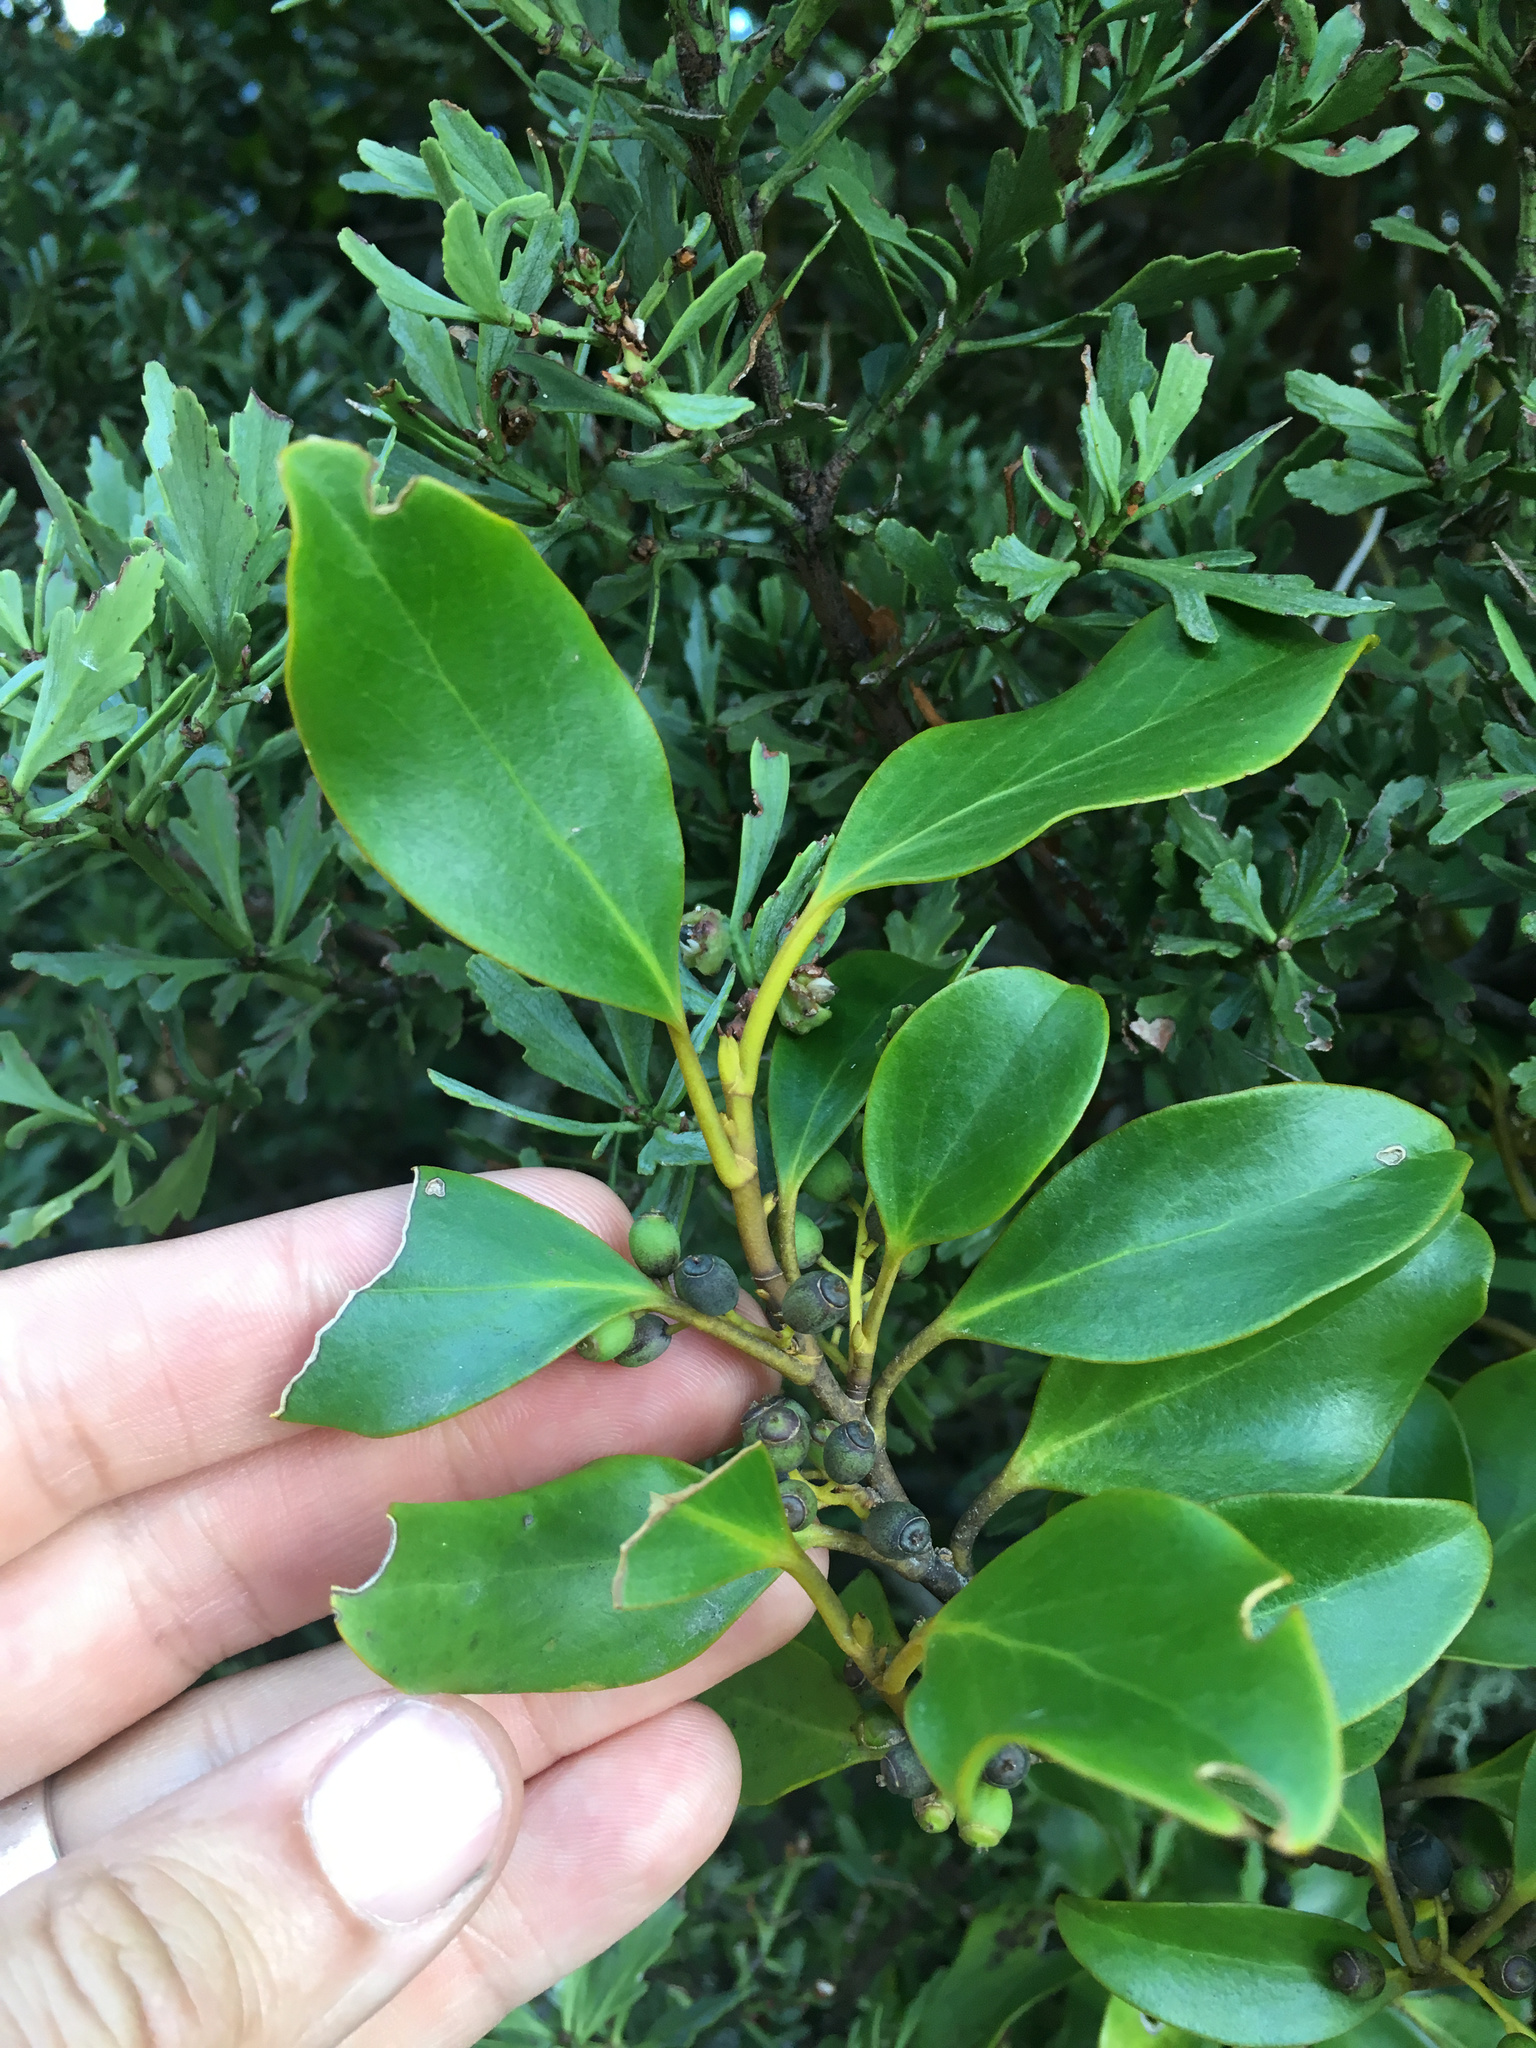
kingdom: Plantae
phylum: Tracheophyta
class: Magnoliopsida
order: Apiales
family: Griseliniaceae
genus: Griselinia
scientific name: Griselinia littoralis
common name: New zealand broadleaf
